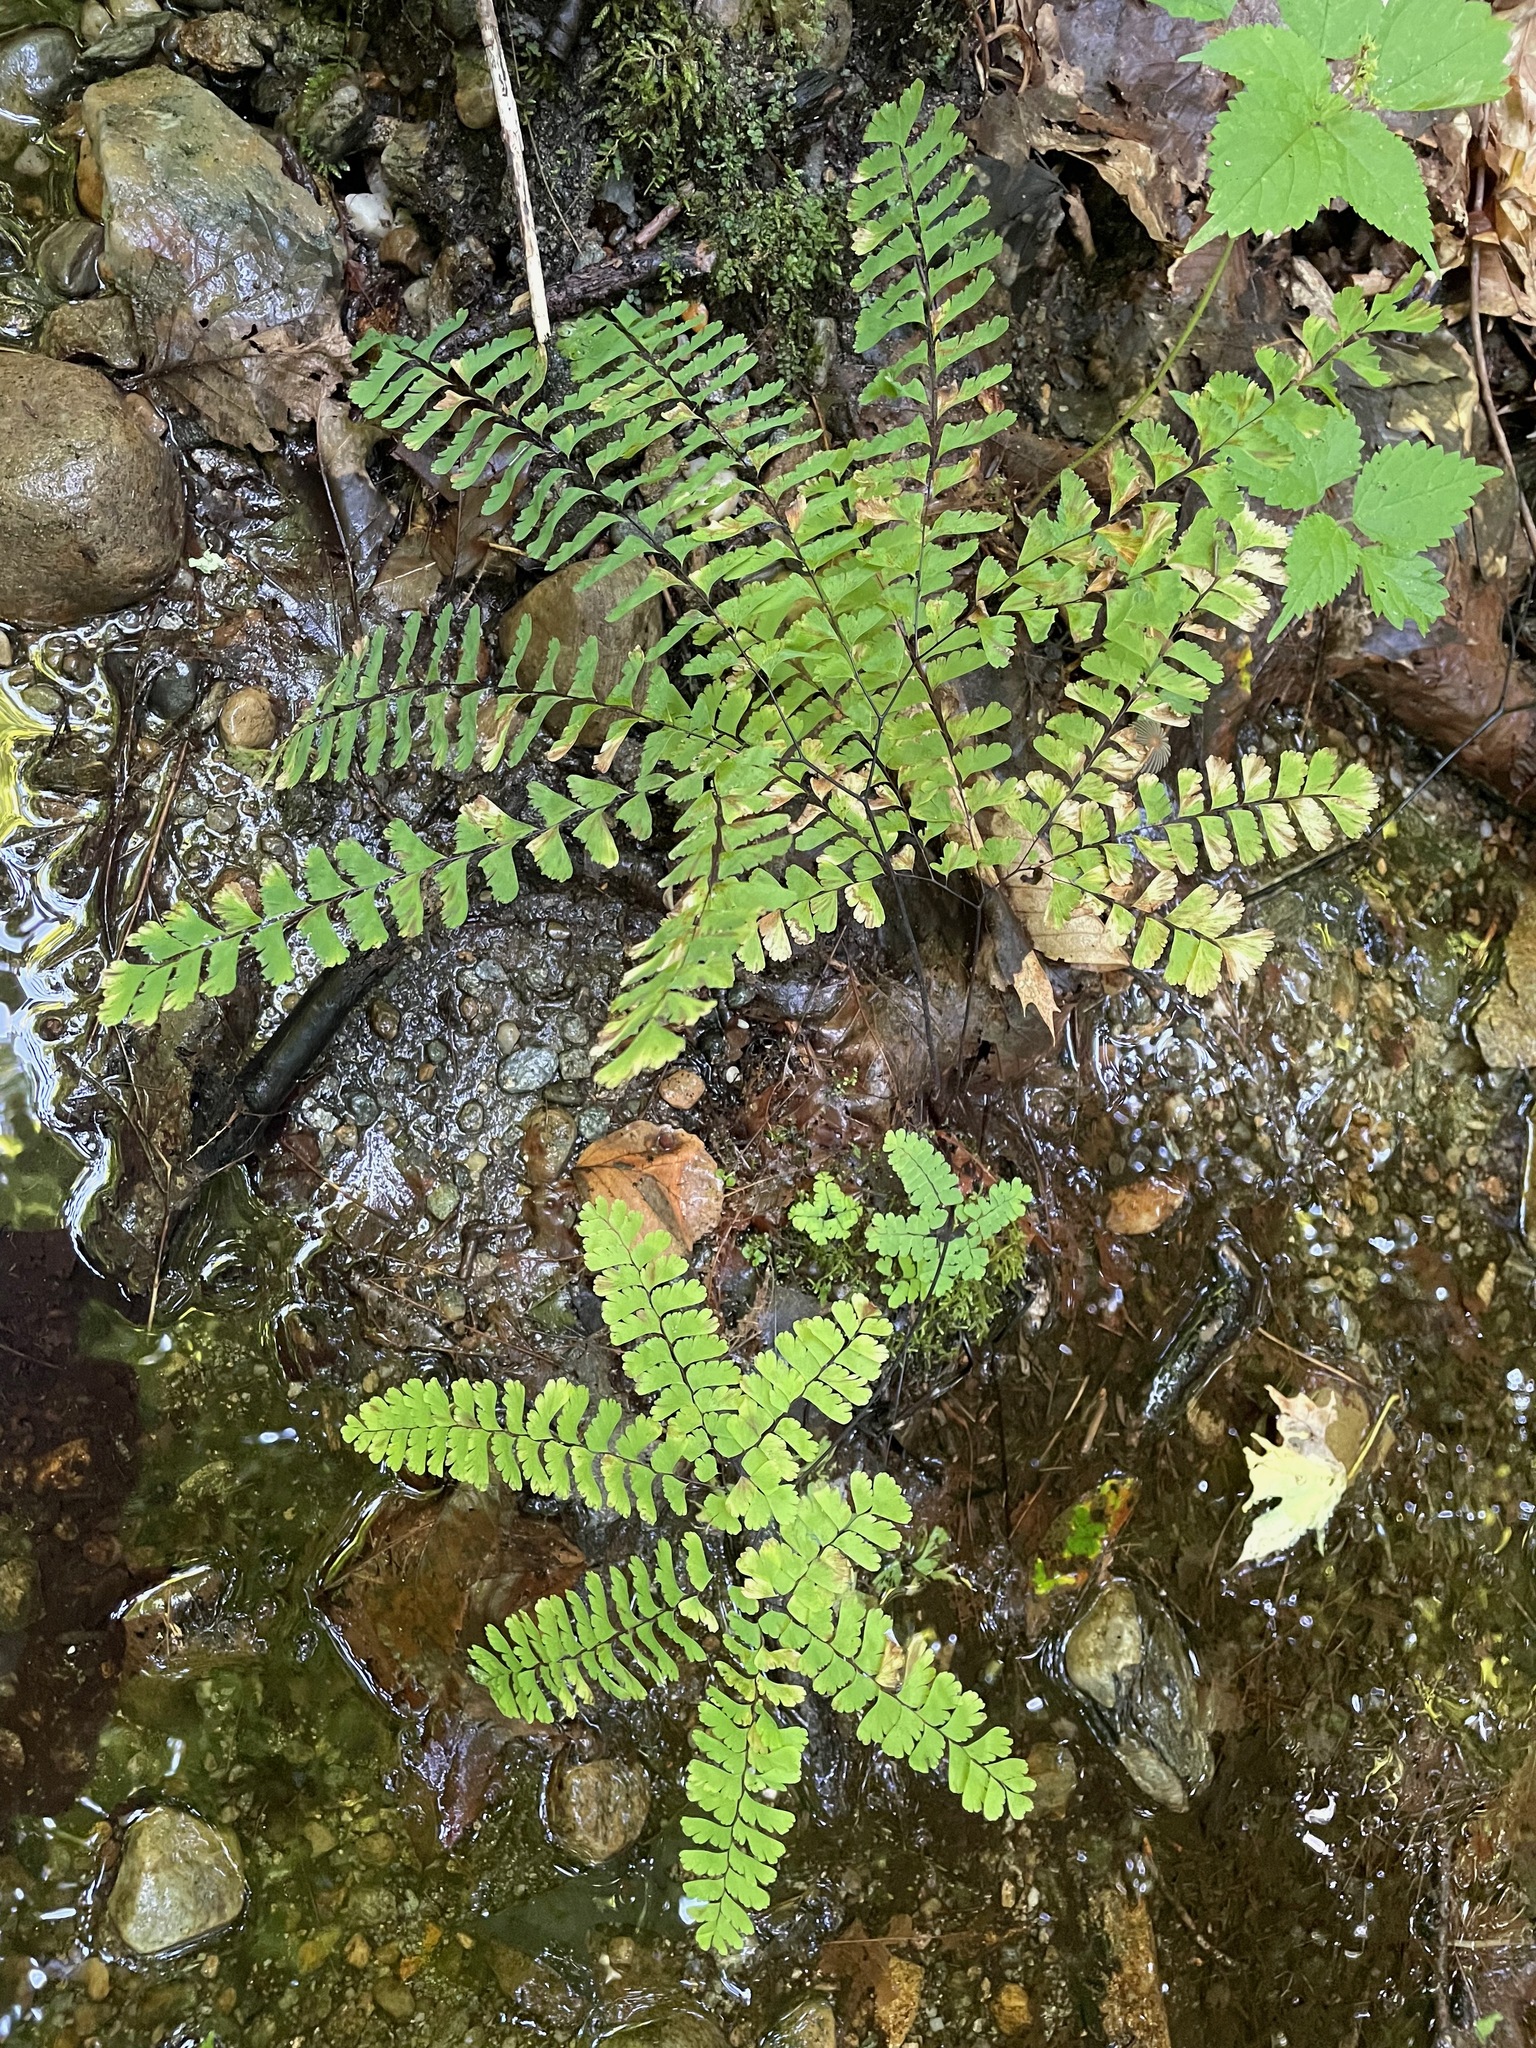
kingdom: Plantae
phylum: Tracheophyta
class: Polypodiopsida
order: Polypodiales
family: Pteridaceae
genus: Adiantum
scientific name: Adiantum pedatum
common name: Five-finger fern
